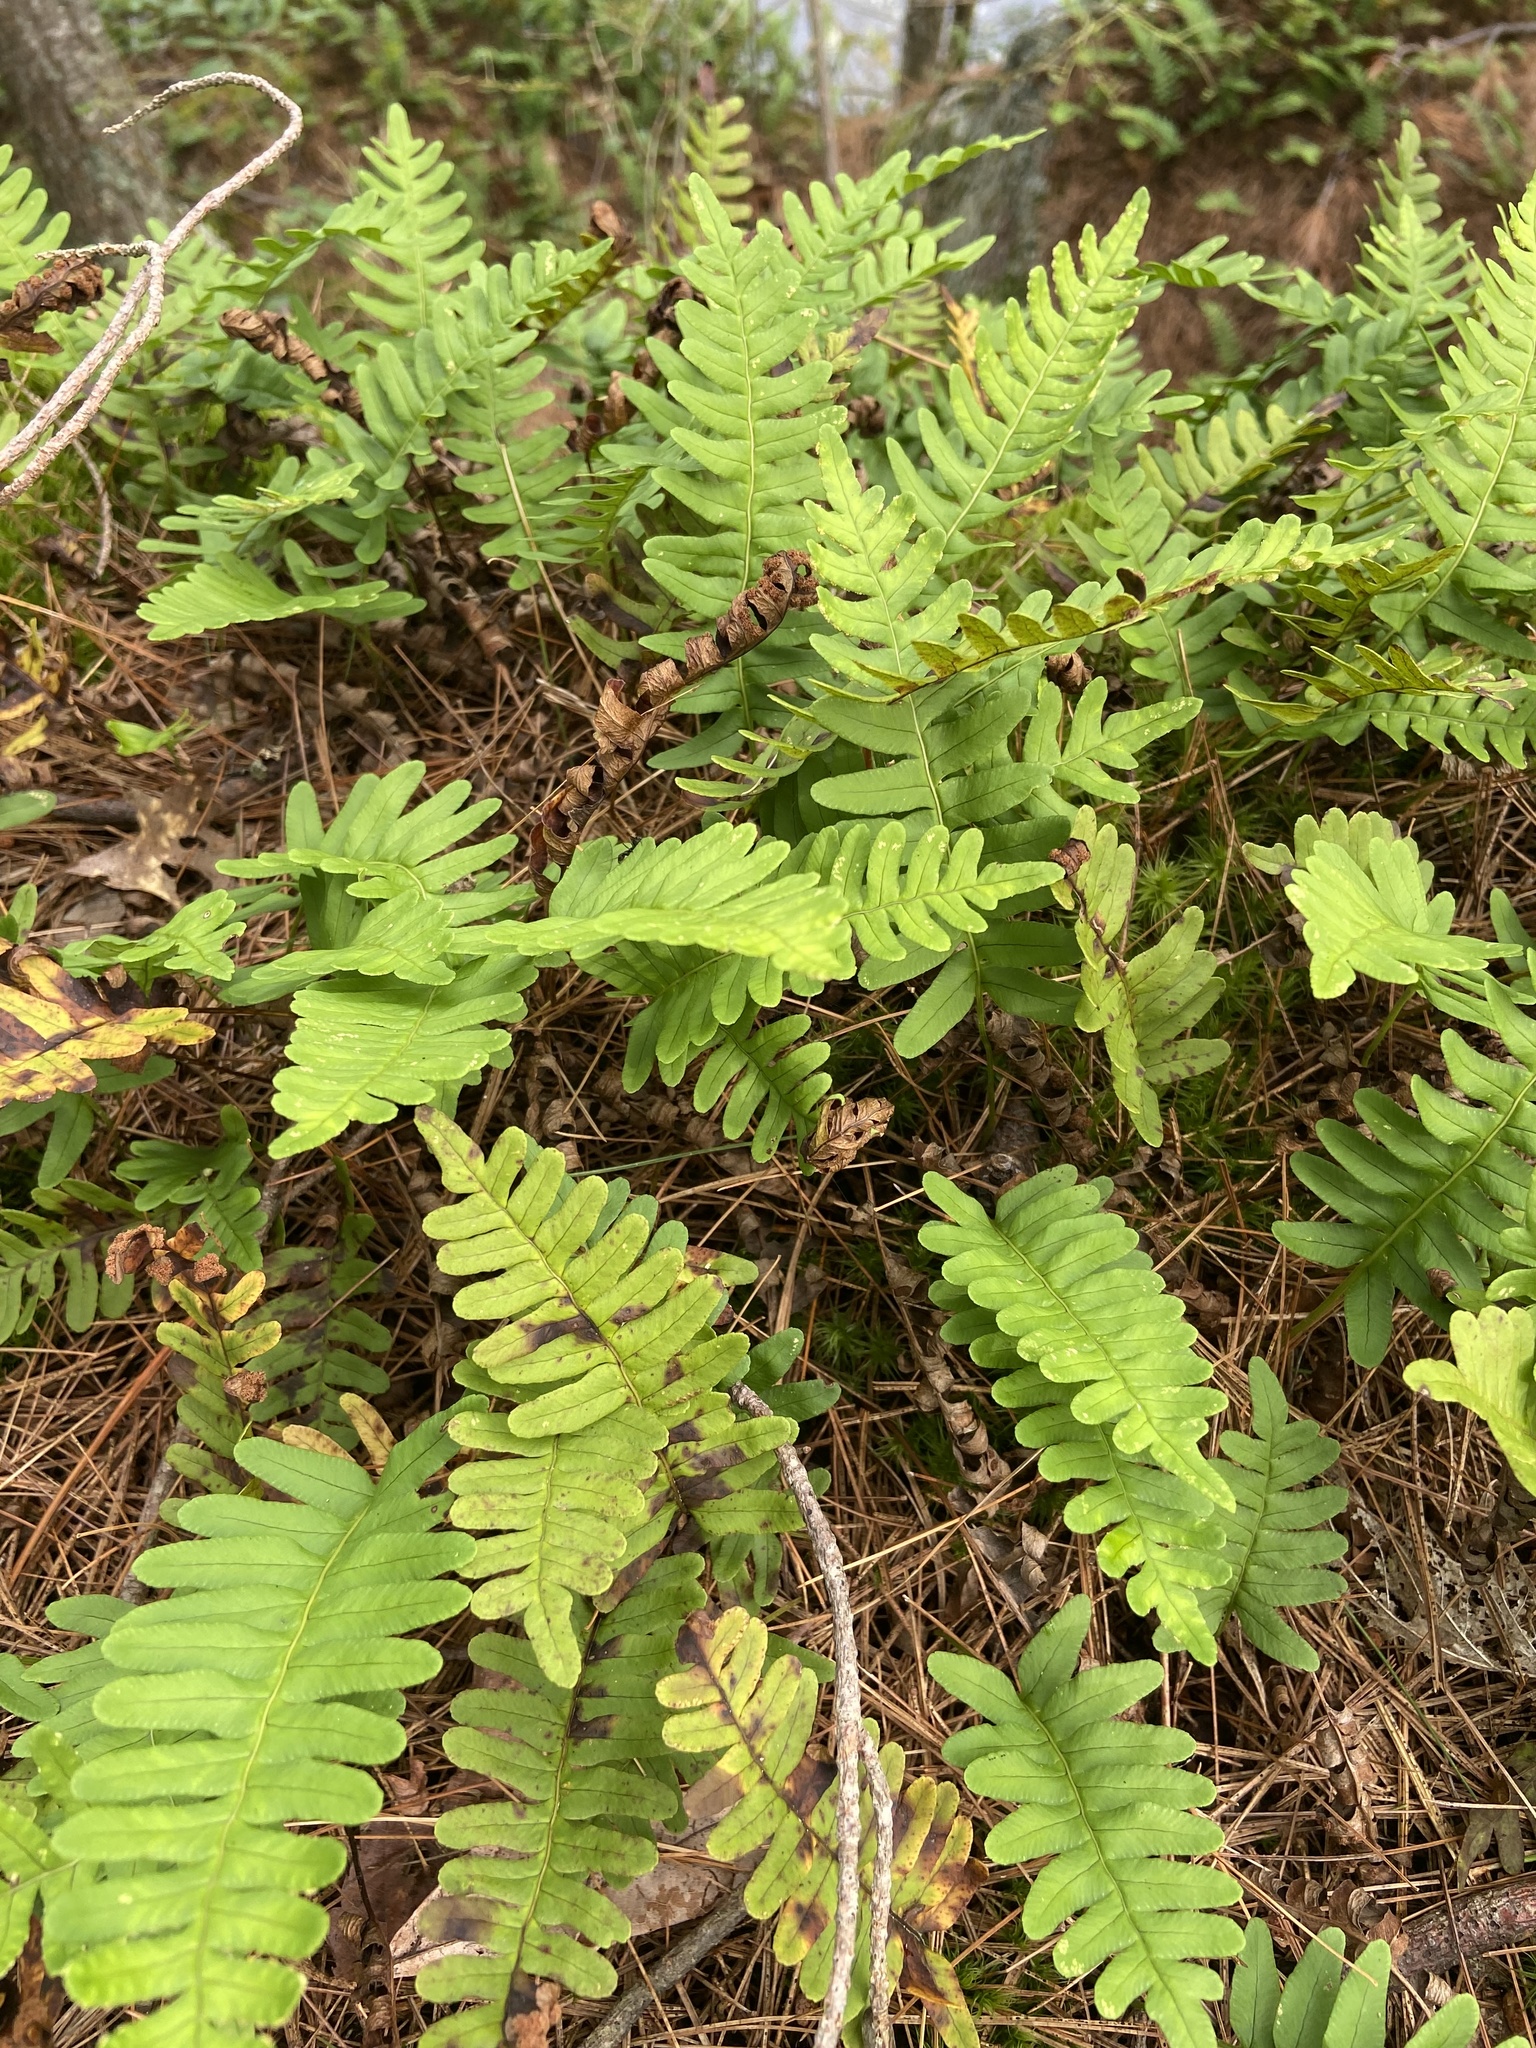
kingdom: Plantae
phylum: Tracheophyta
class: Polypodiopsida
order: Polypodiales
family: Polypodiaceae
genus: Polypodium
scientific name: Polypodium virginianum
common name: American wall fern
